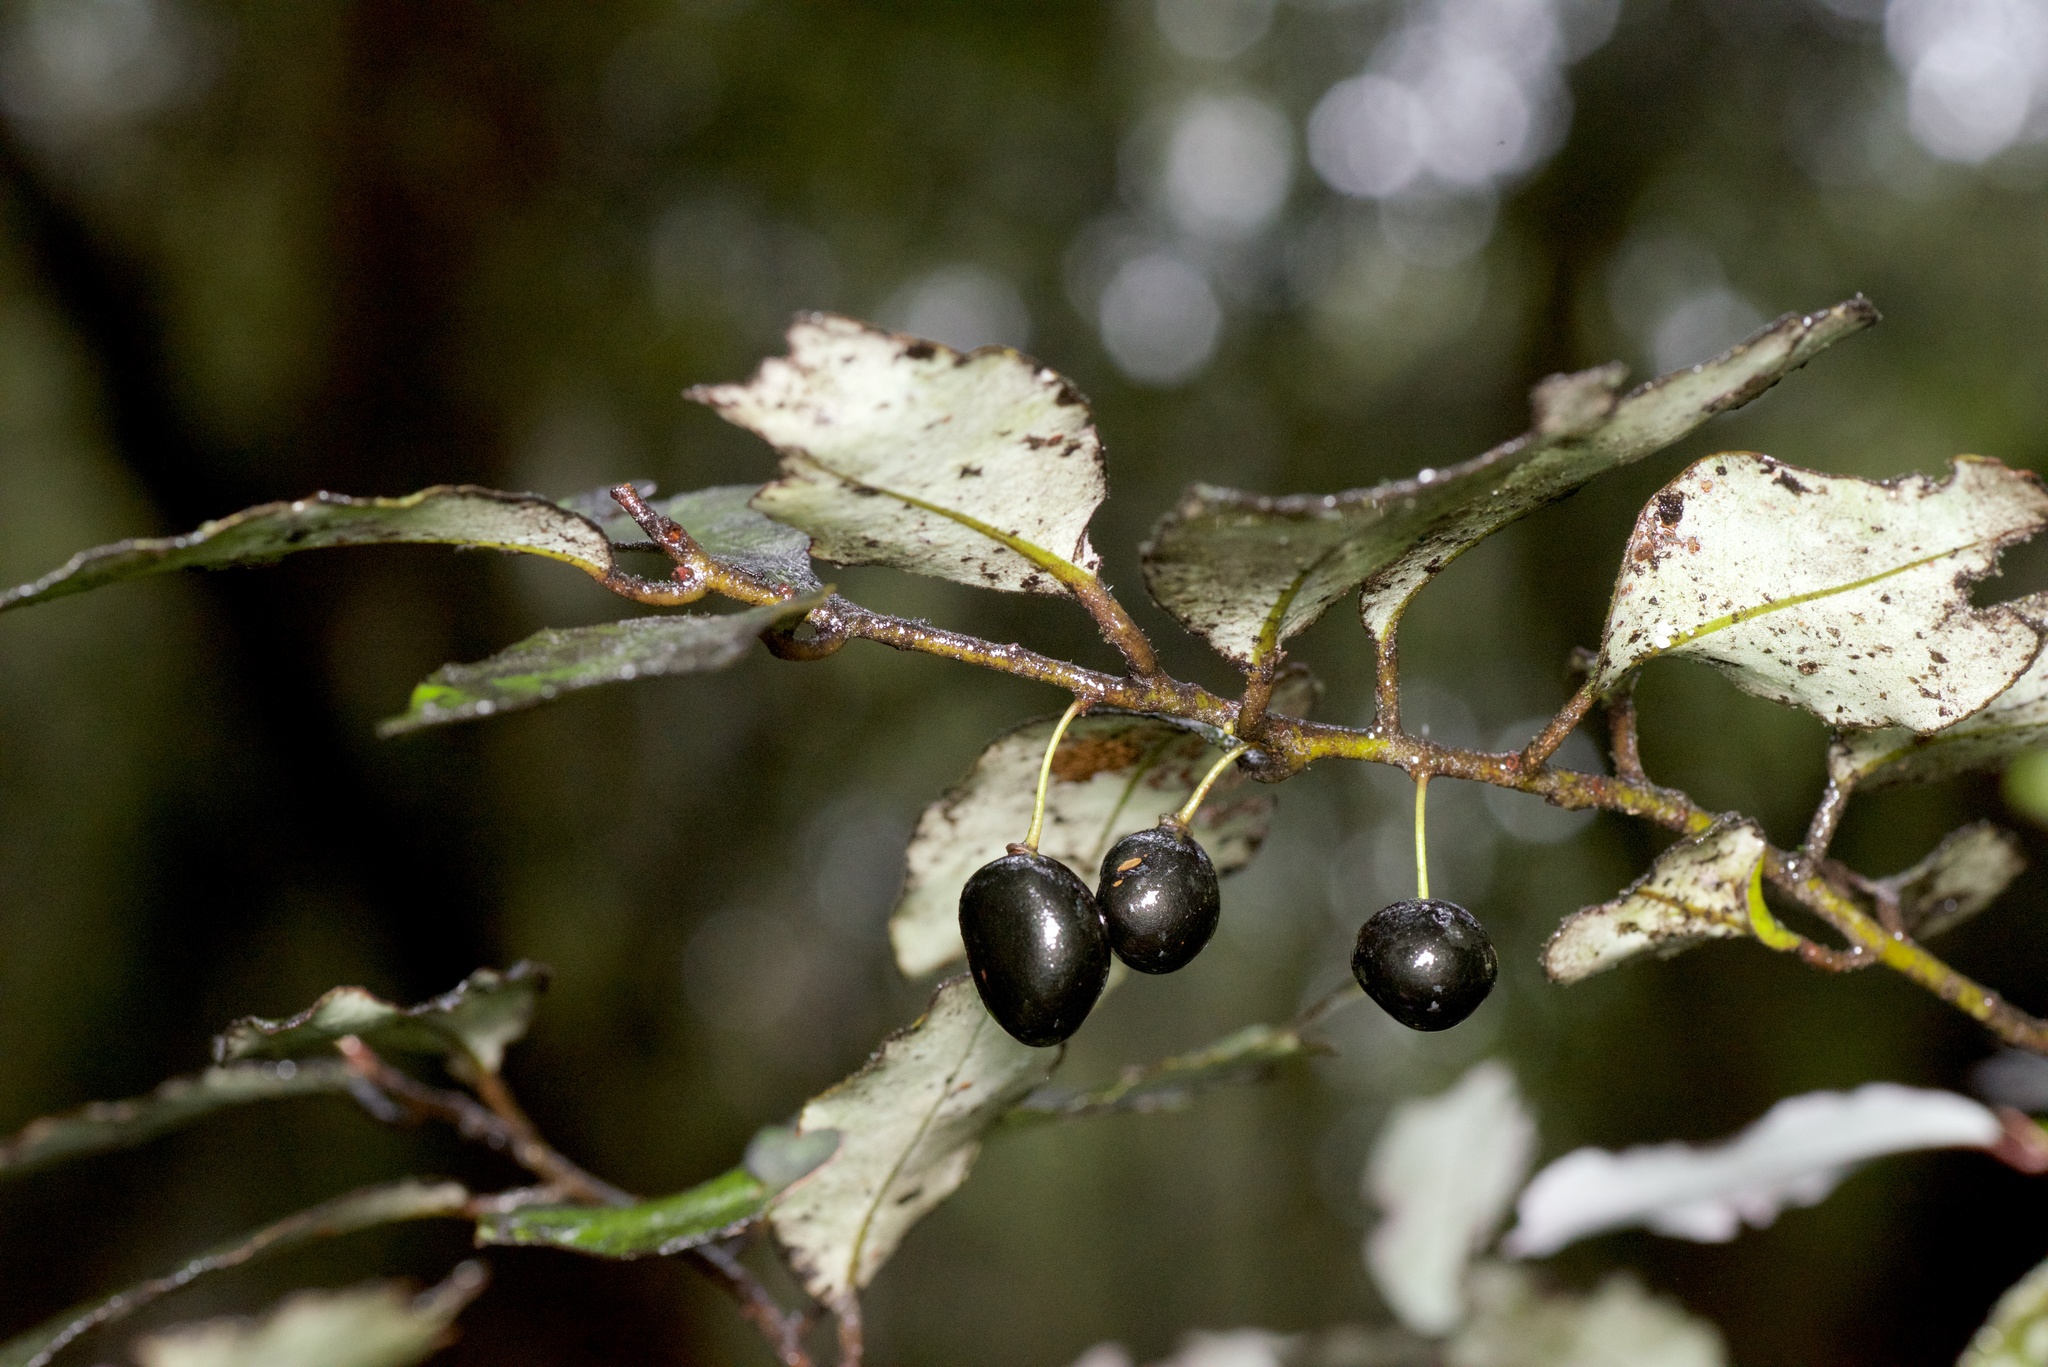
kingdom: Plantae
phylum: Tracheophyta
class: Magnoliopsida
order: Canellales
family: Winteraceae
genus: Pseudowintera
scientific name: Pseudowintera colorata
